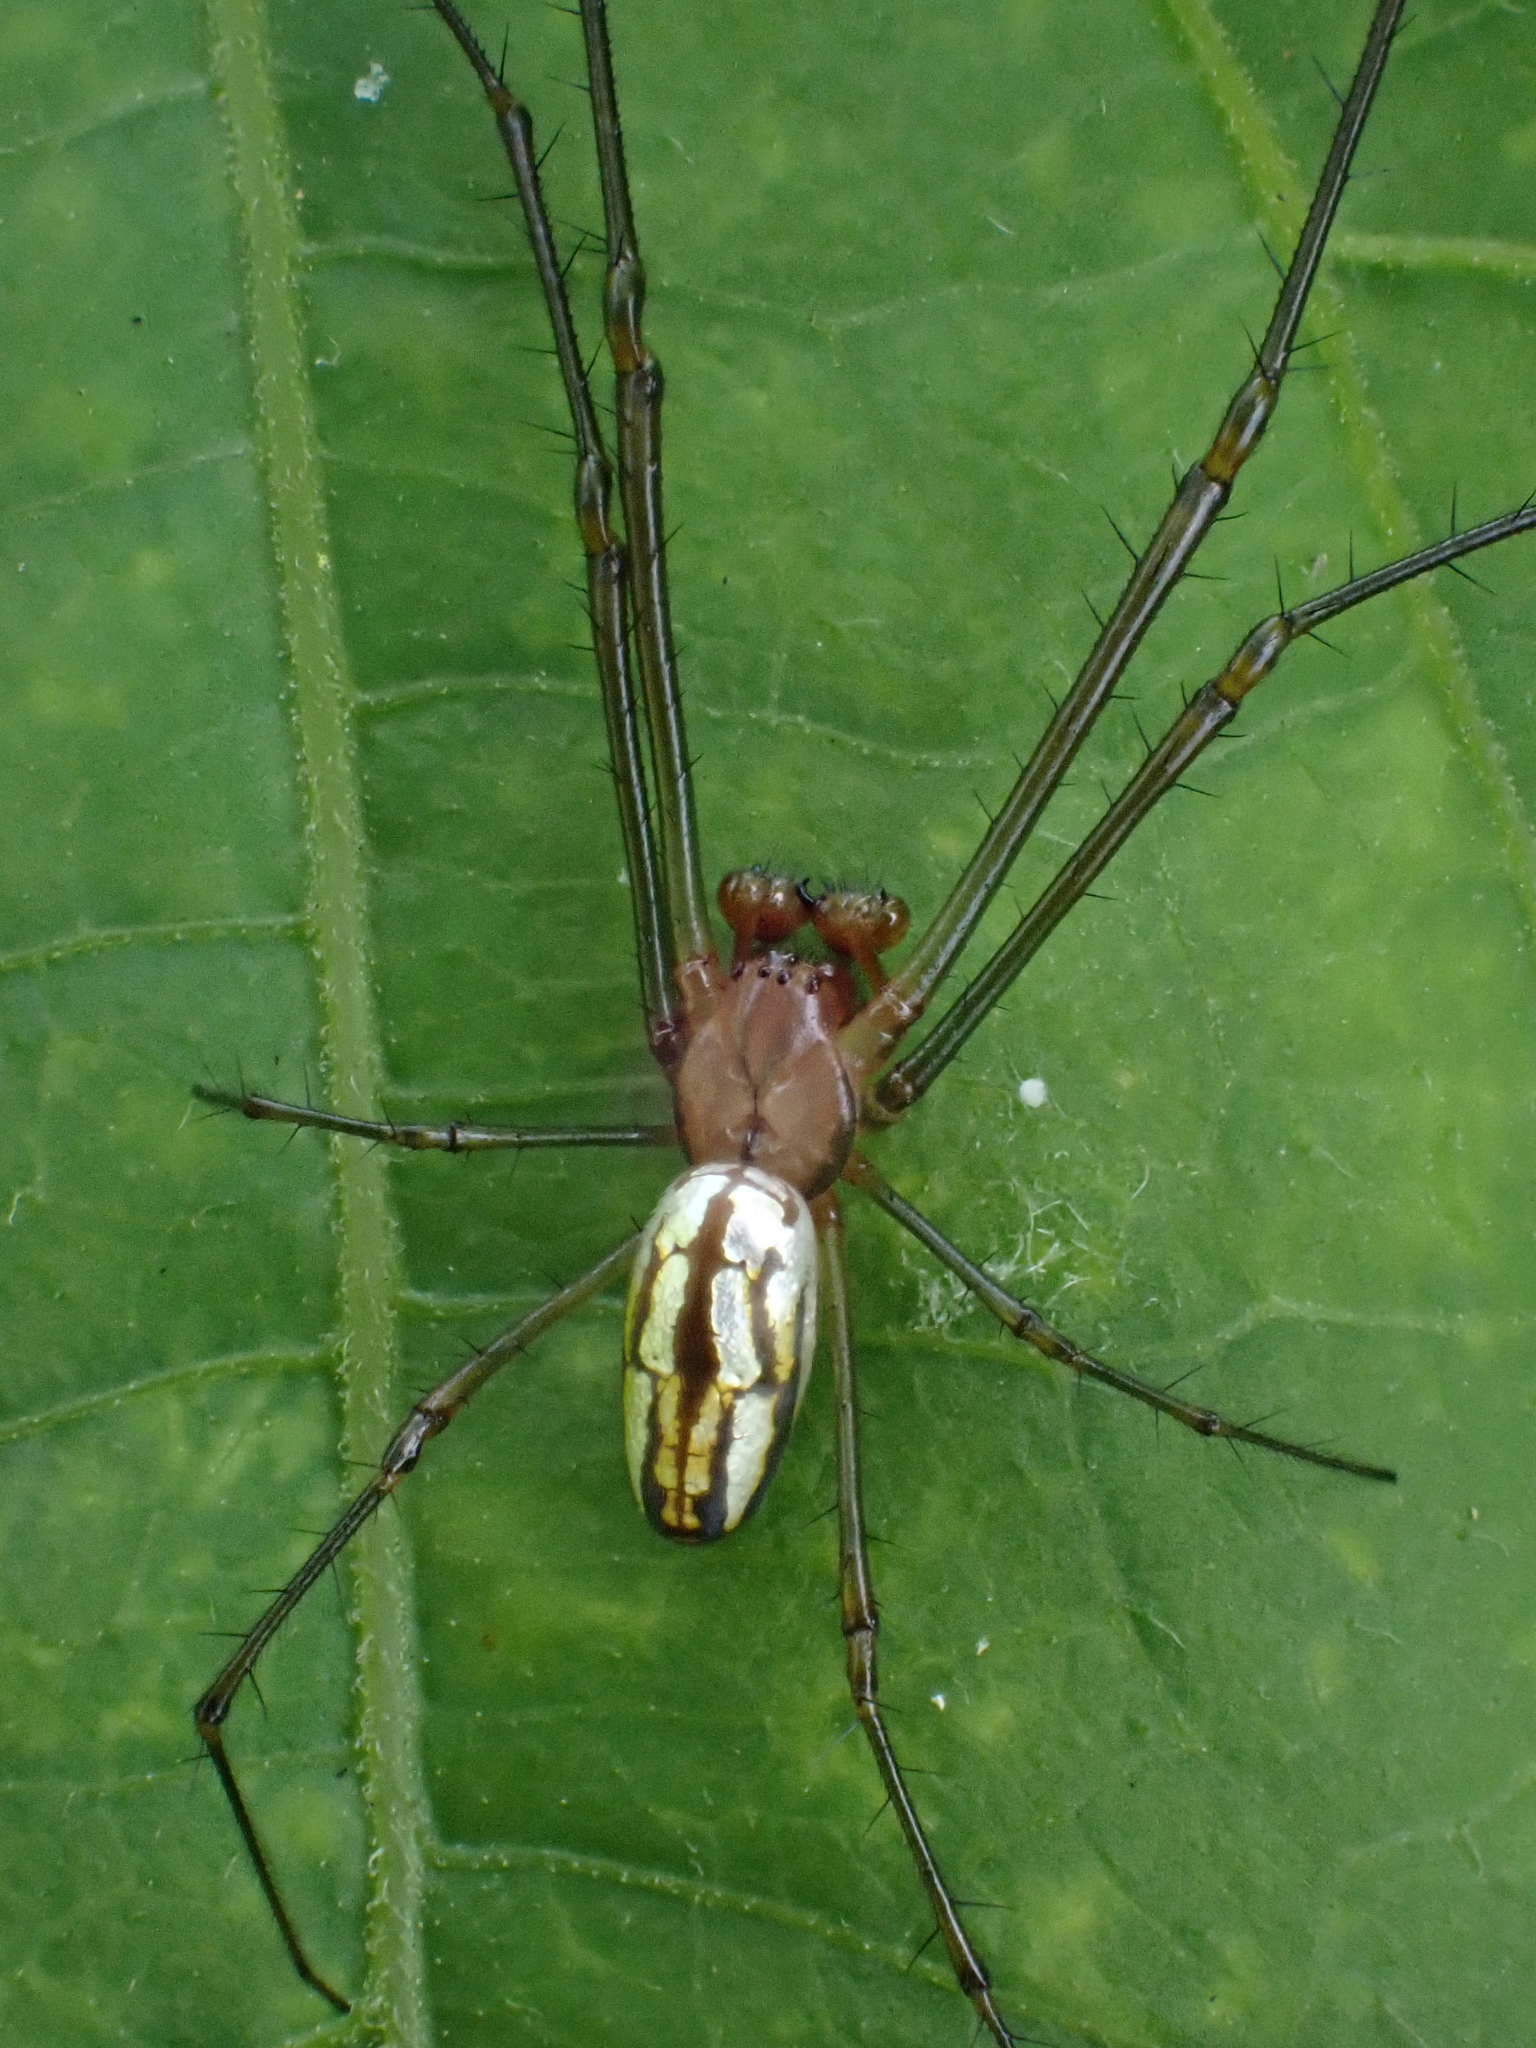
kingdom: Animalia
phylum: Arthropoda
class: Arachnida
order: Araneae
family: Tetragnathidae
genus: Leucauge
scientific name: Leucauge argyra
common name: Longjawed orb weavers
